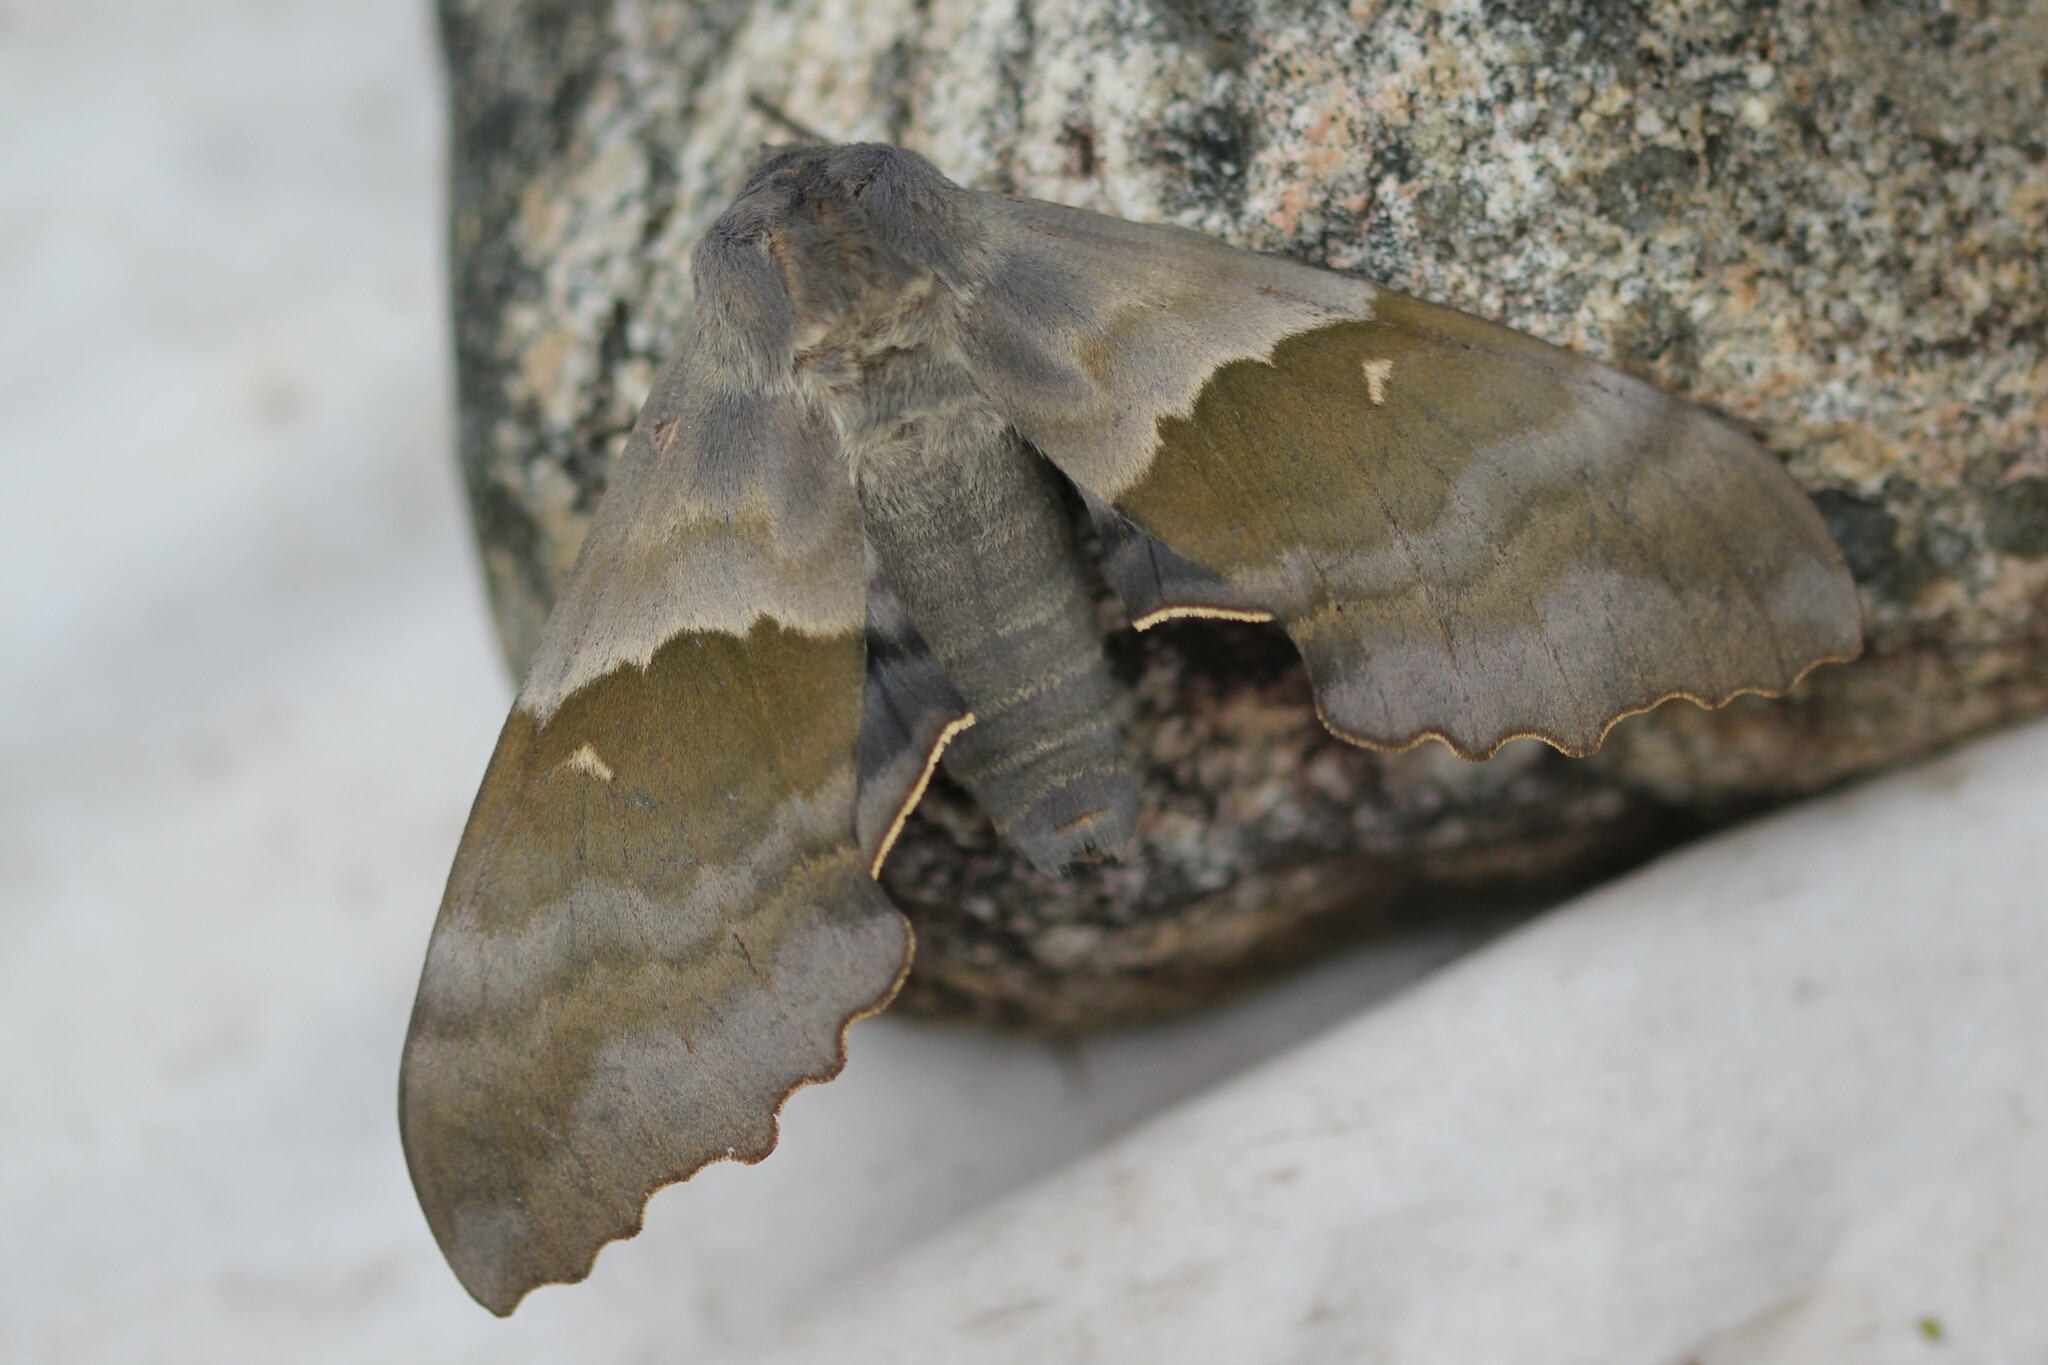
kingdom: Animalia
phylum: Arthropoda
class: Insecta
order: Lepidoptera
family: Sphingidae
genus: Pachysphinx
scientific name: Pachysphinx modesta
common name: Big poplar sphinx
